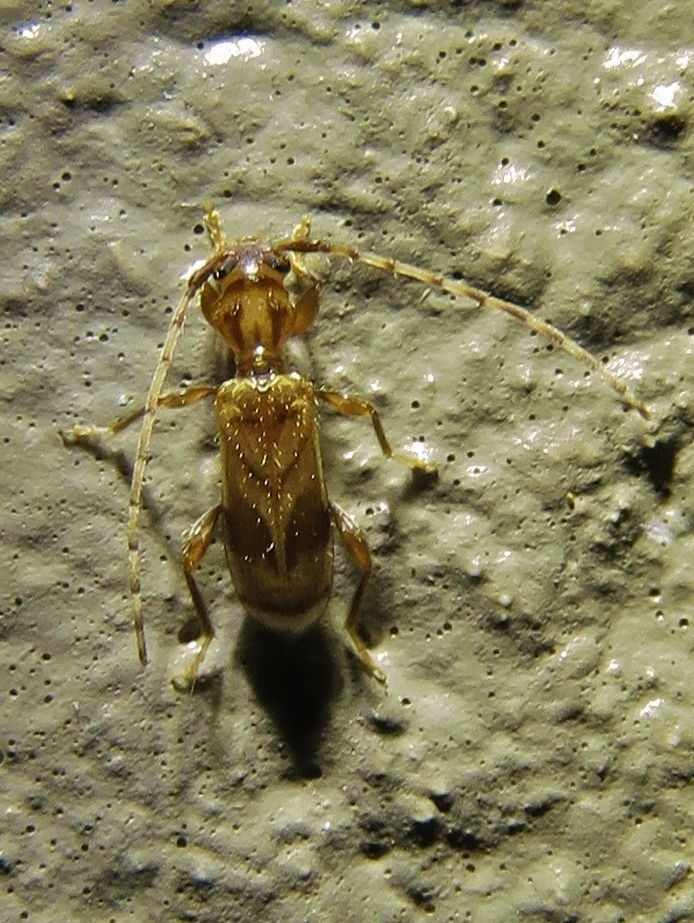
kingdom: Animalia
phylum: Arthropoda
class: Insecta
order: Coleoptera
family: Cerambycidae
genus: Obrium
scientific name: Obrium maculatum
